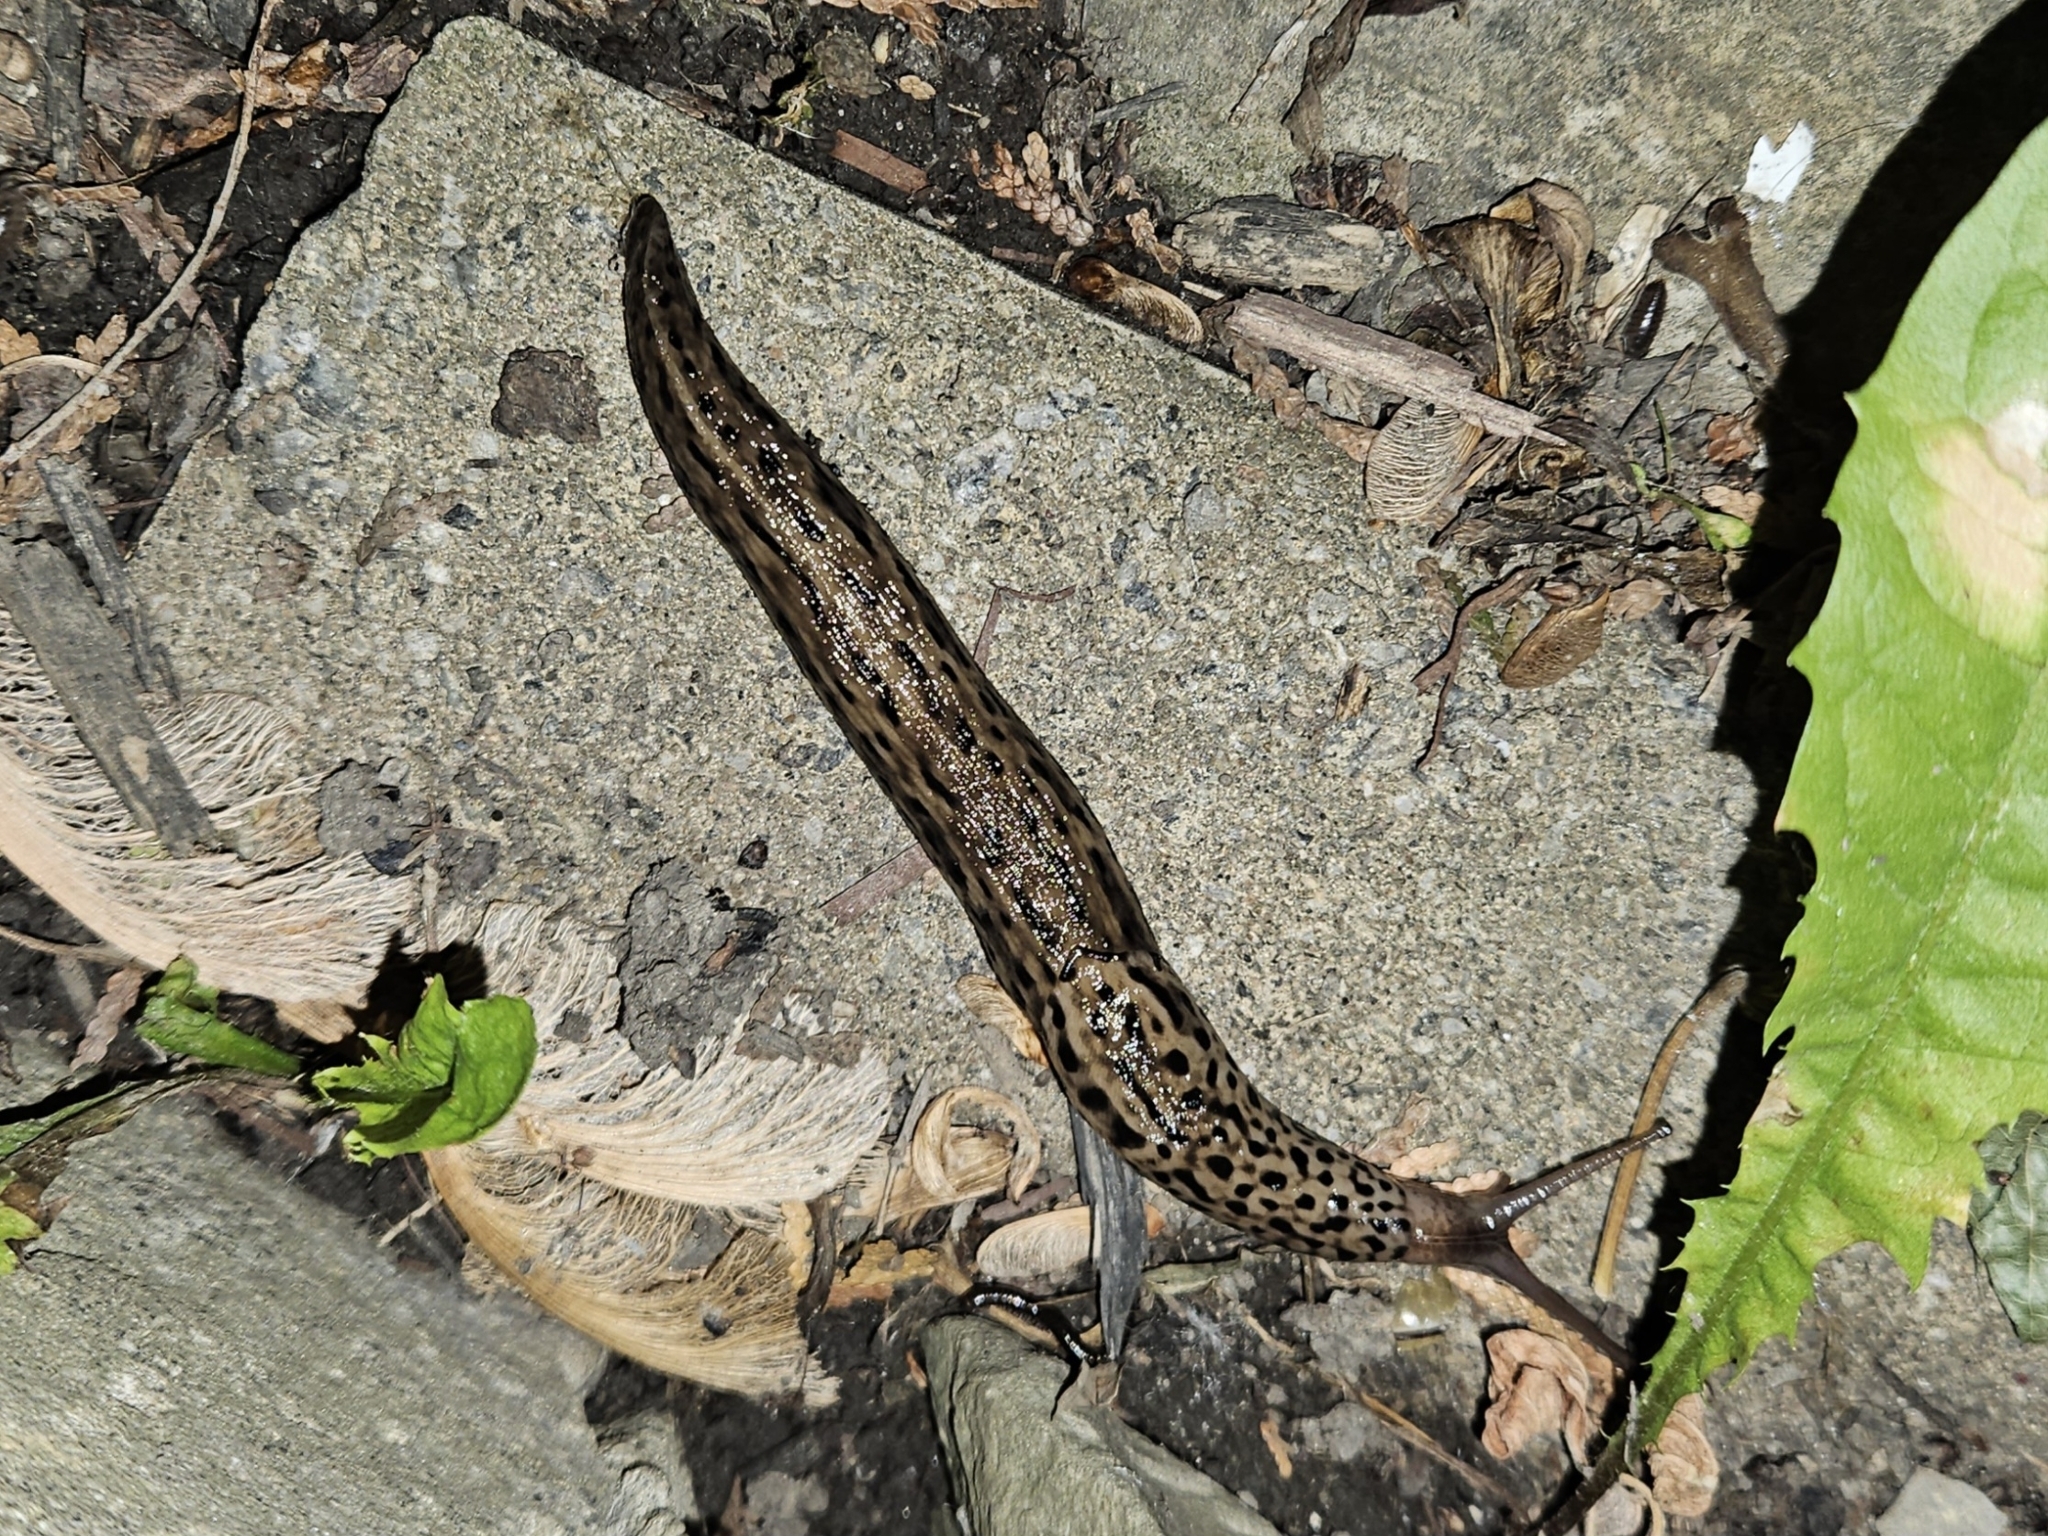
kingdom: Animalia
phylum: Mollusca
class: Gastropoda
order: Stylommatophora
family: Limacidae
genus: Limax
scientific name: Limax maximus
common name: Great grey slug
